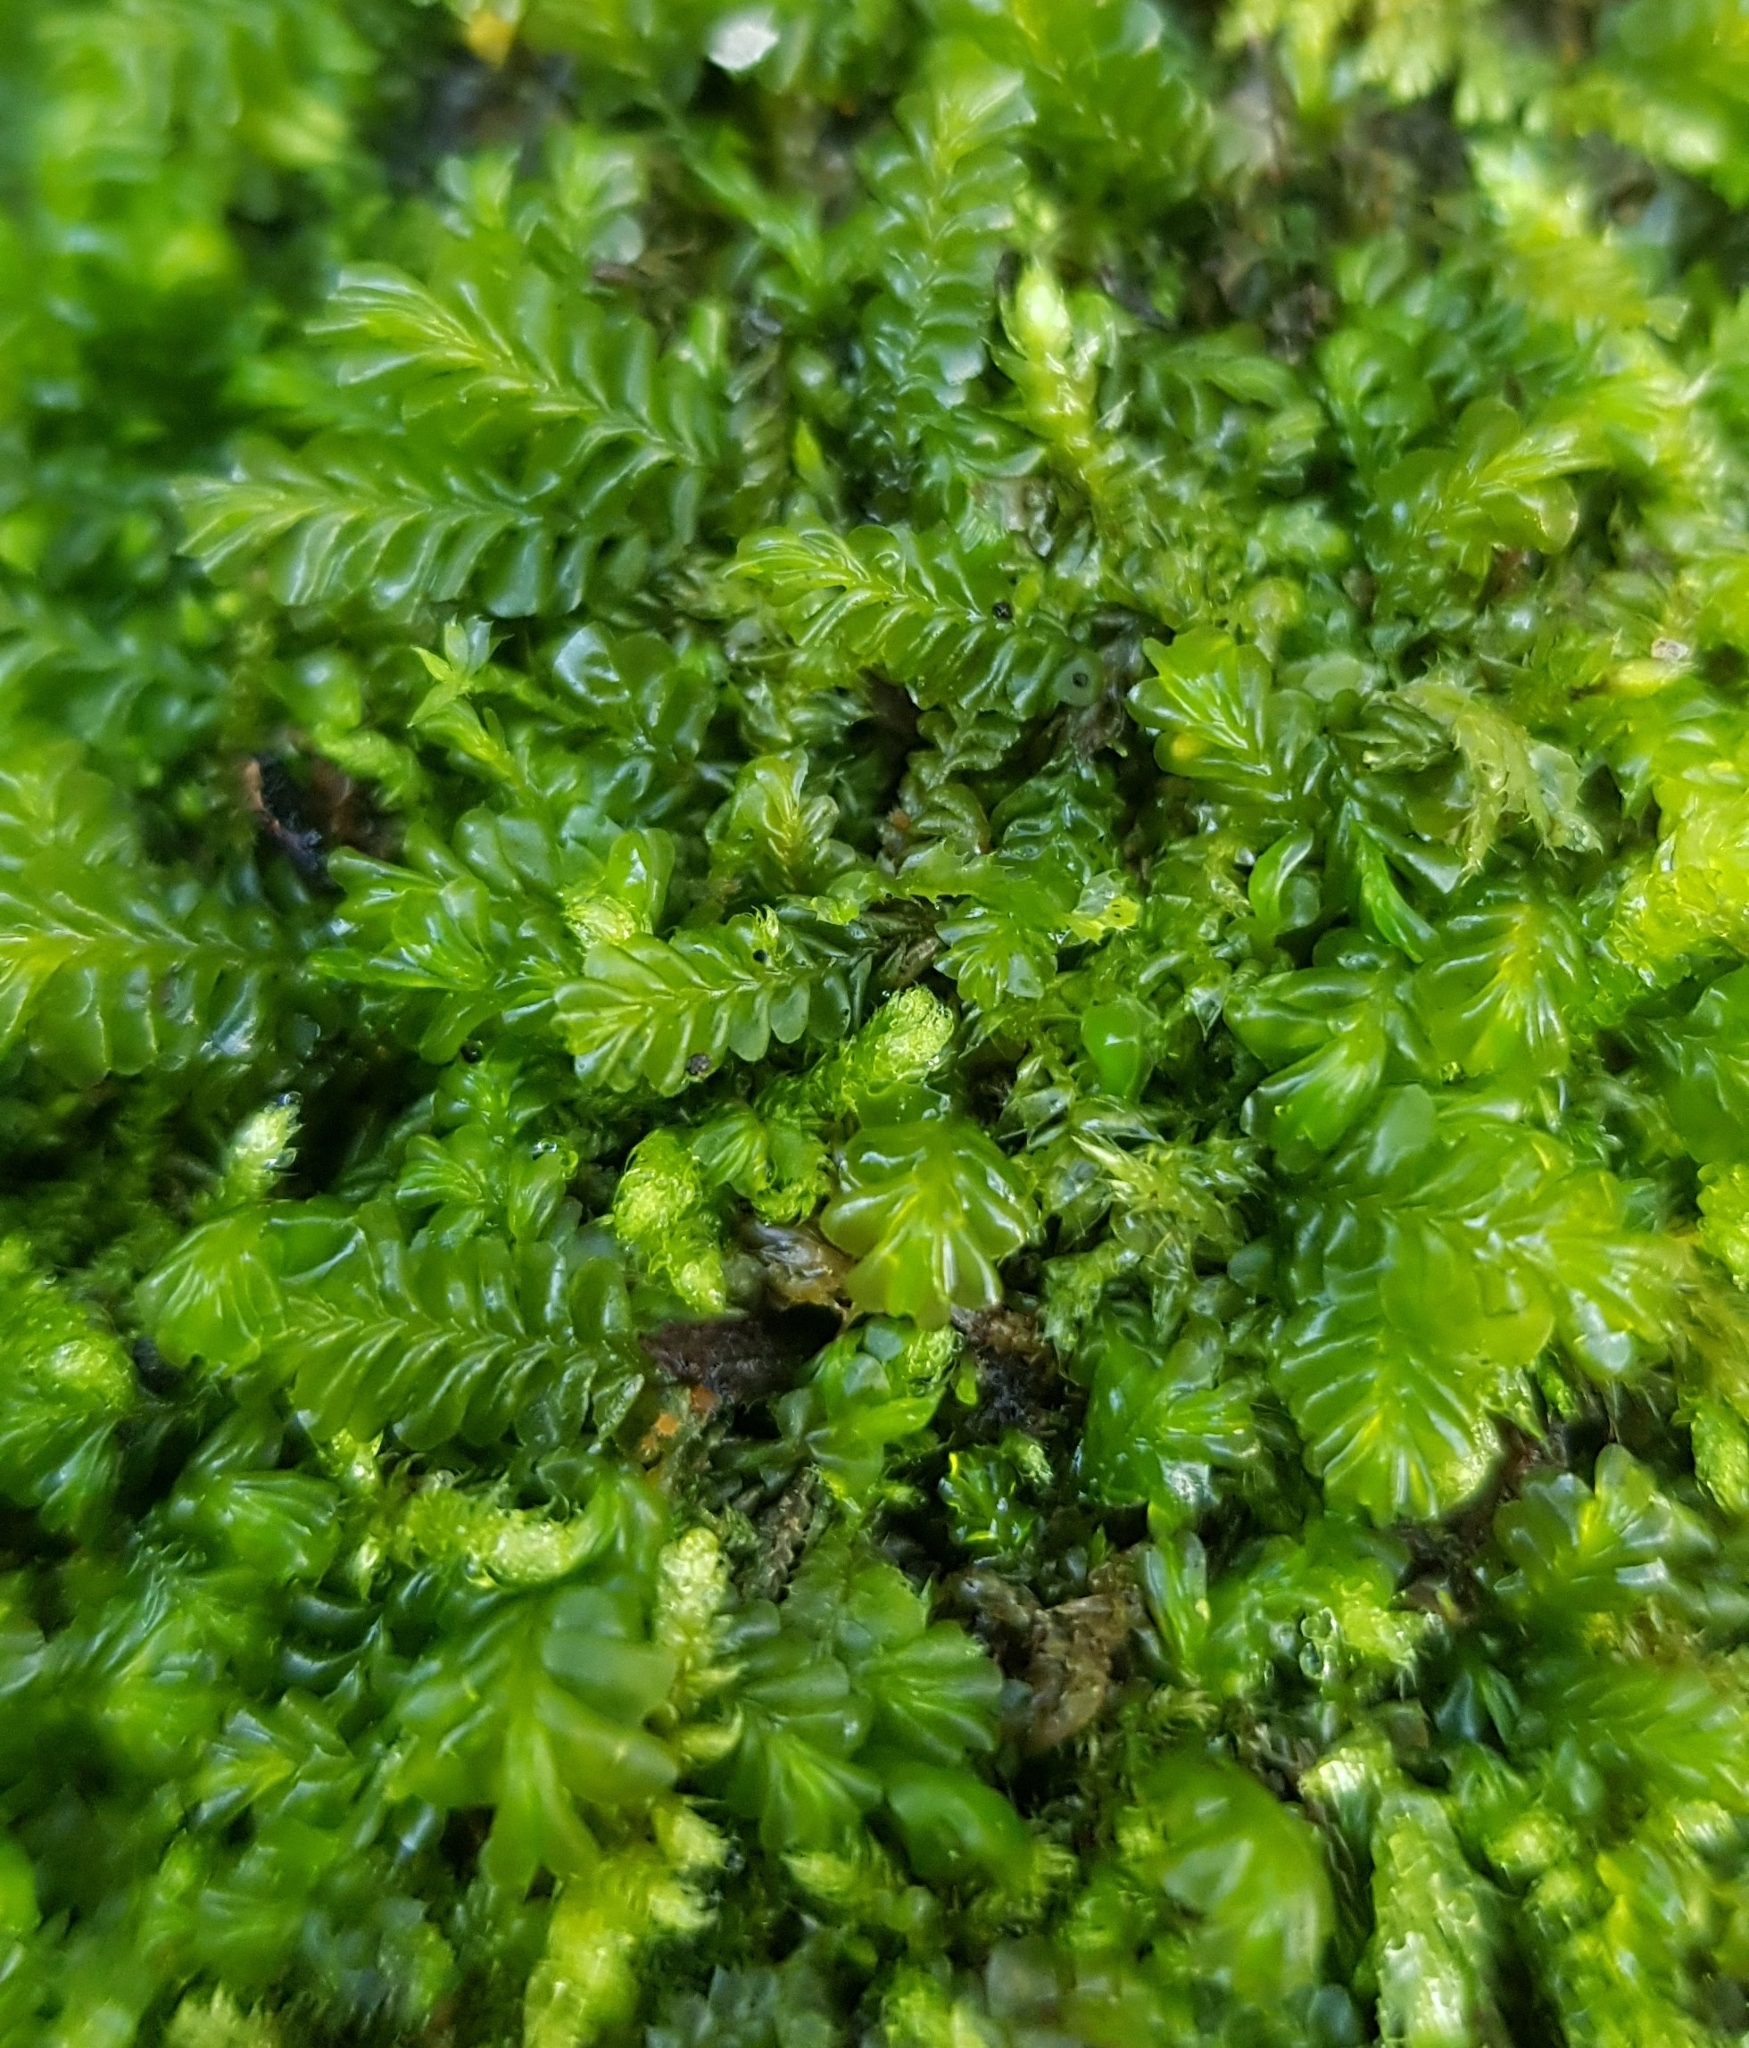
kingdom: Plantae
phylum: Marchantiophyta
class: Jungermanniopsida
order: Jungermanniales
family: Plagiochilaceae
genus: Plagiochila
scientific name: Plagiochila porelloides
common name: Lesser featherwort
